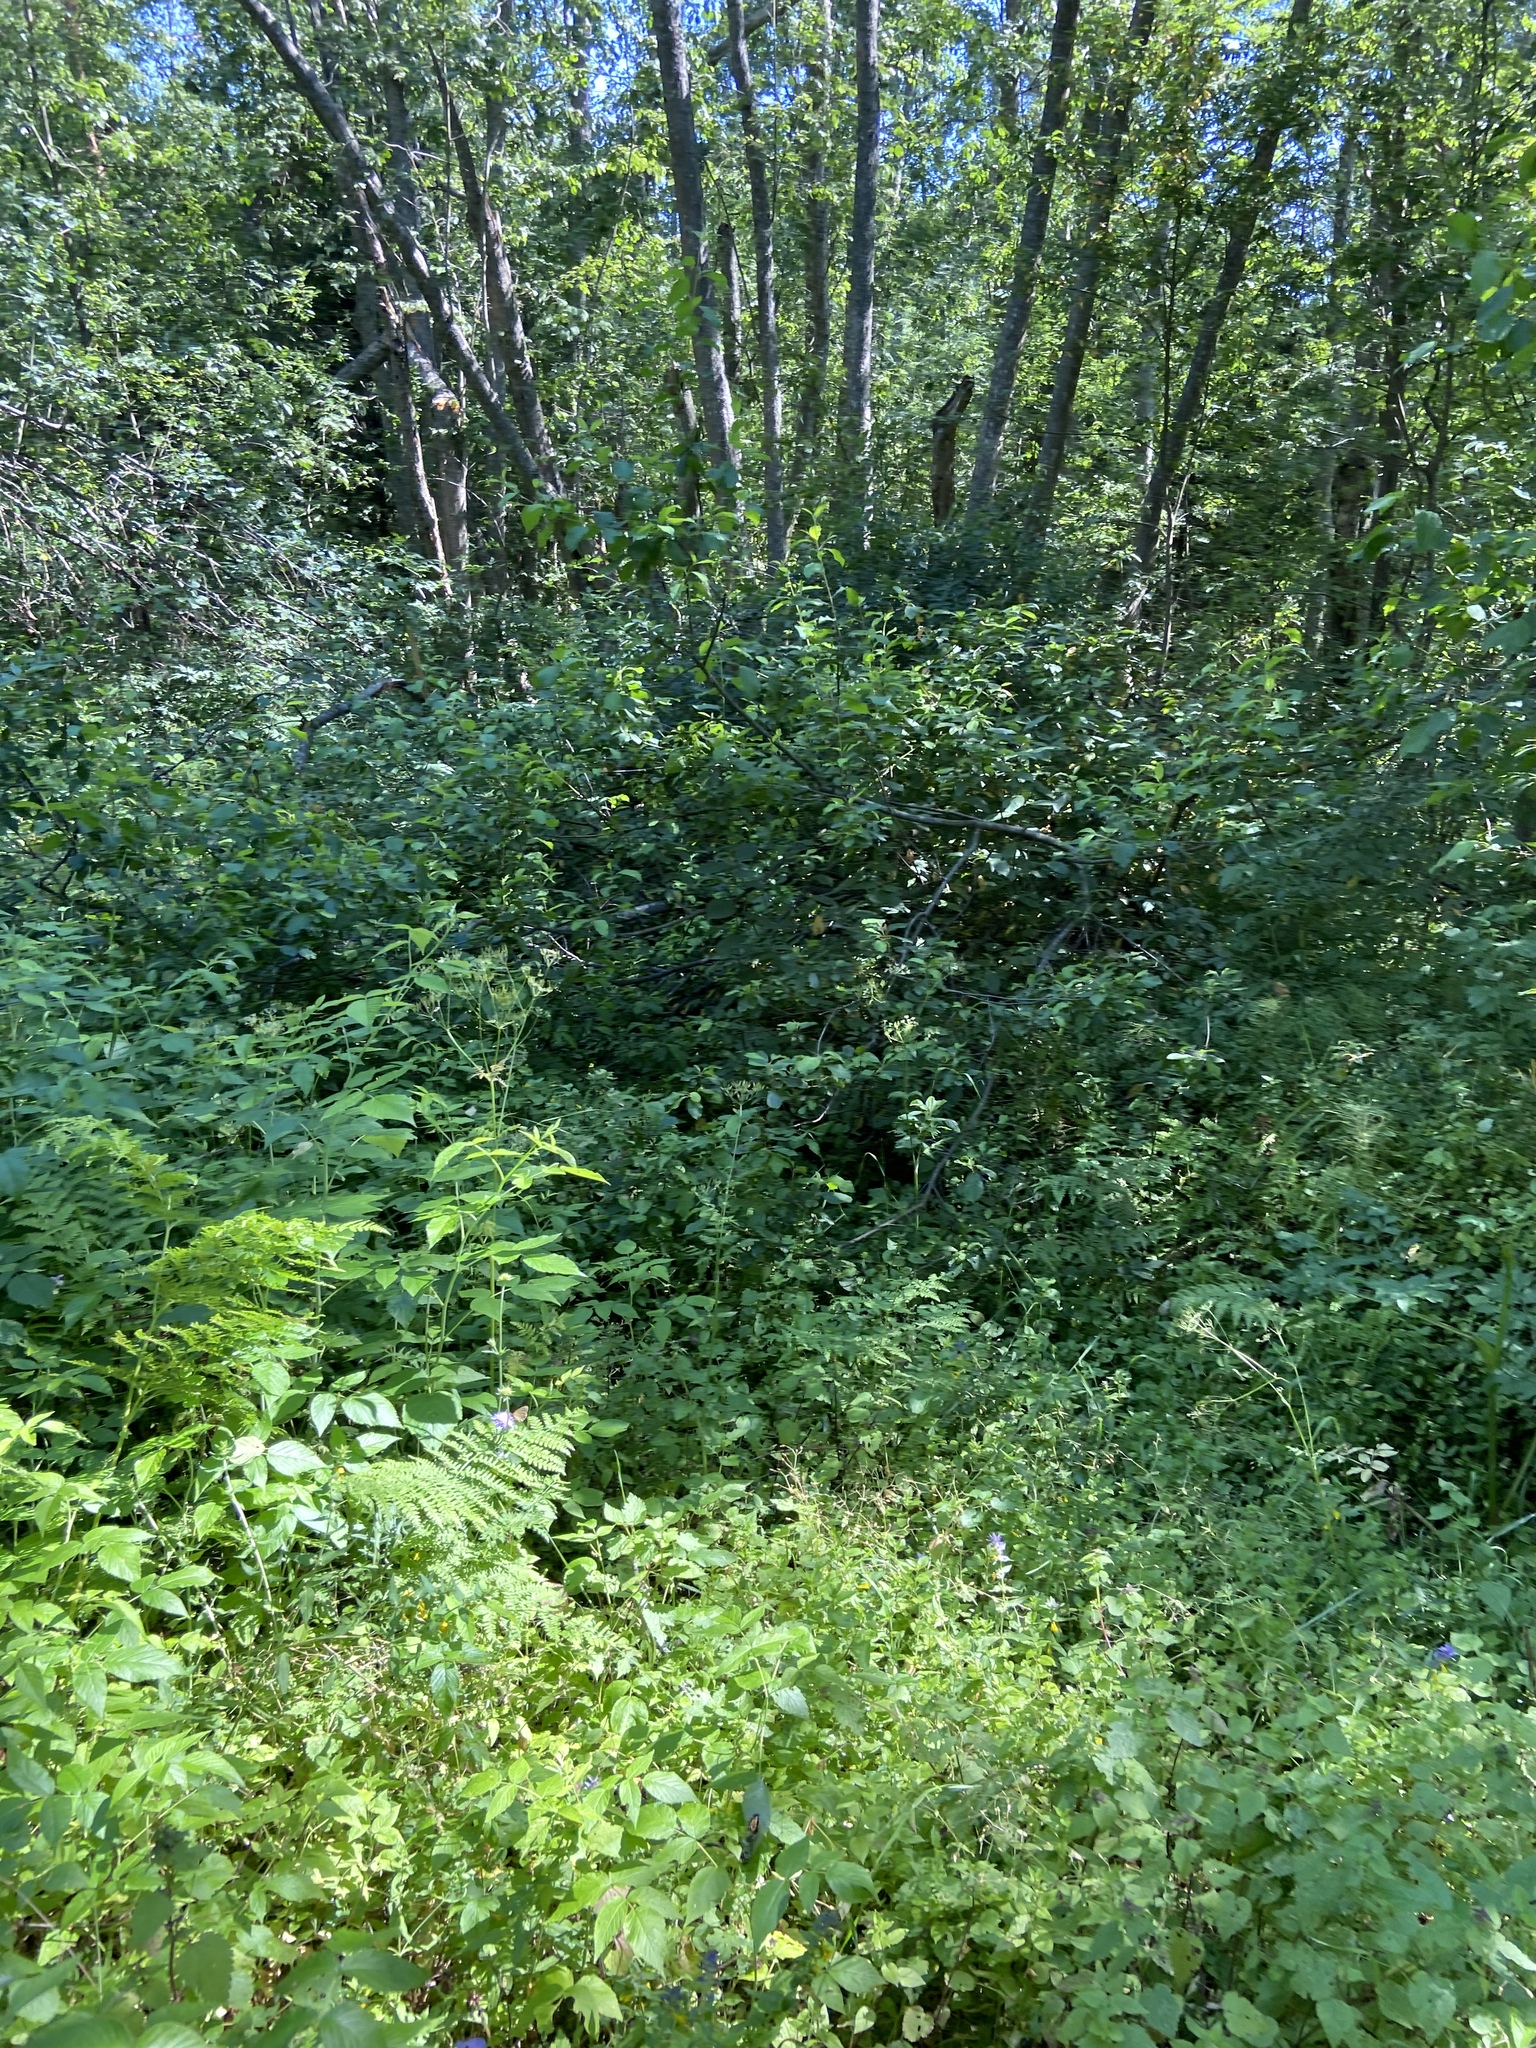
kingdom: Plantae
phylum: Tracheophyta
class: Magnoliopsida
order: Apiales
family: Apiaceae
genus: Anthriscus
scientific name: Anthriscus sylvestris
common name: Cow parsley
